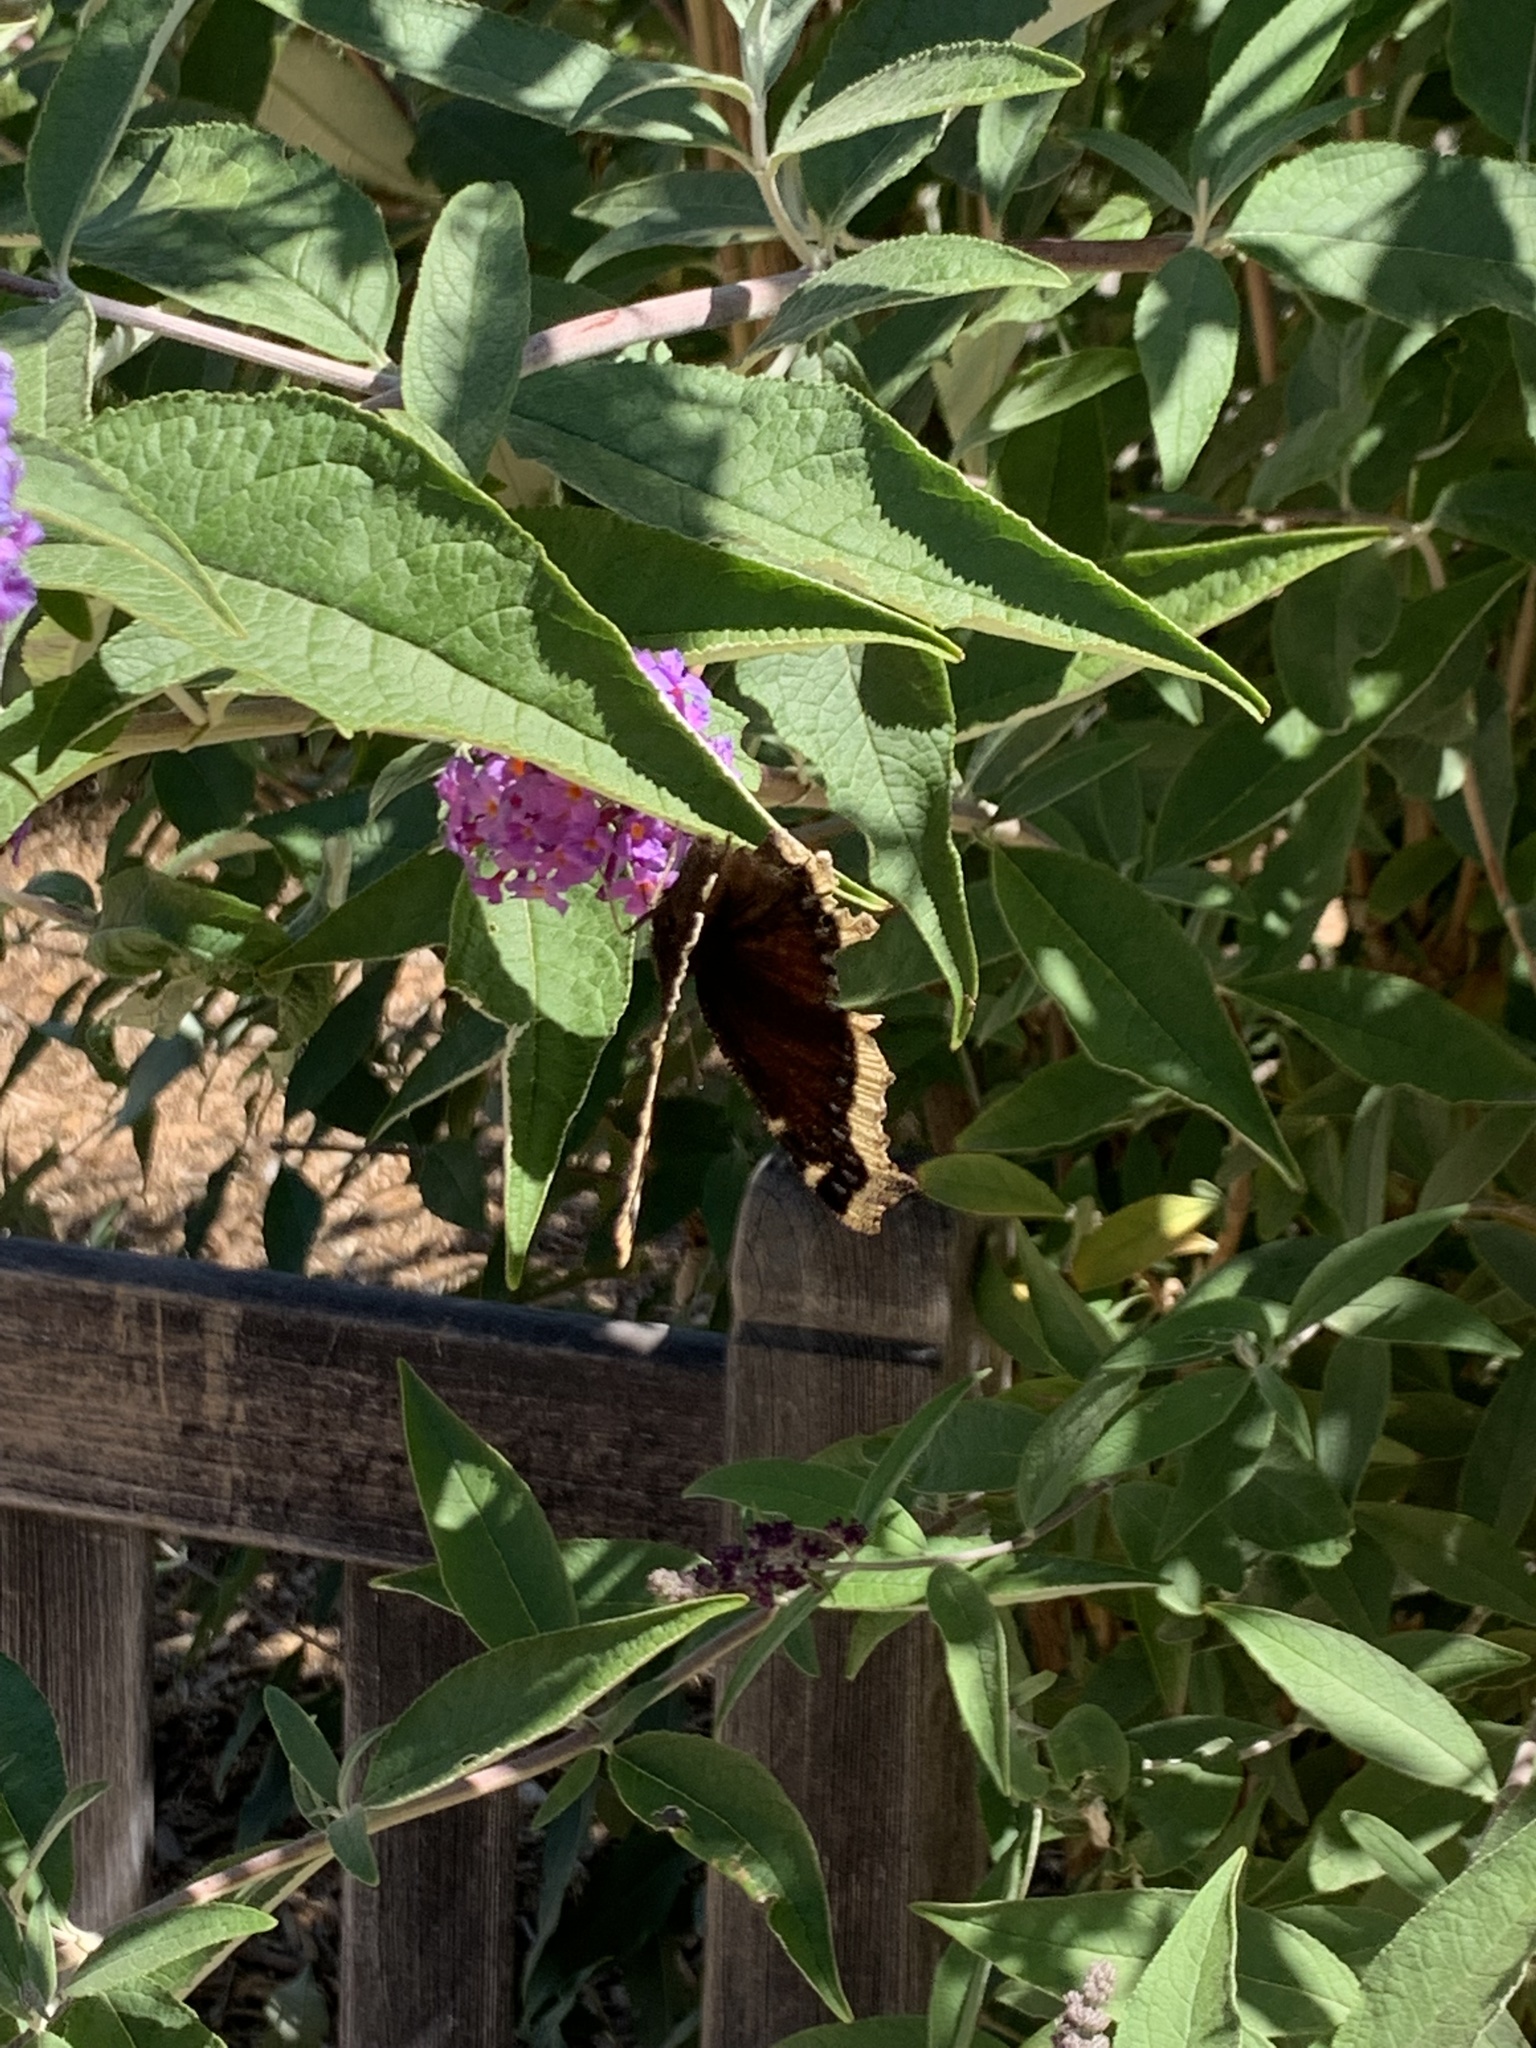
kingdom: Animalia
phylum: Arthropoda
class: Insecta
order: Lepidoptera
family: Nymphalidae
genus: Nymphalis
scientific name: Nymphalis antiopa
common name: Camberwell beauty
